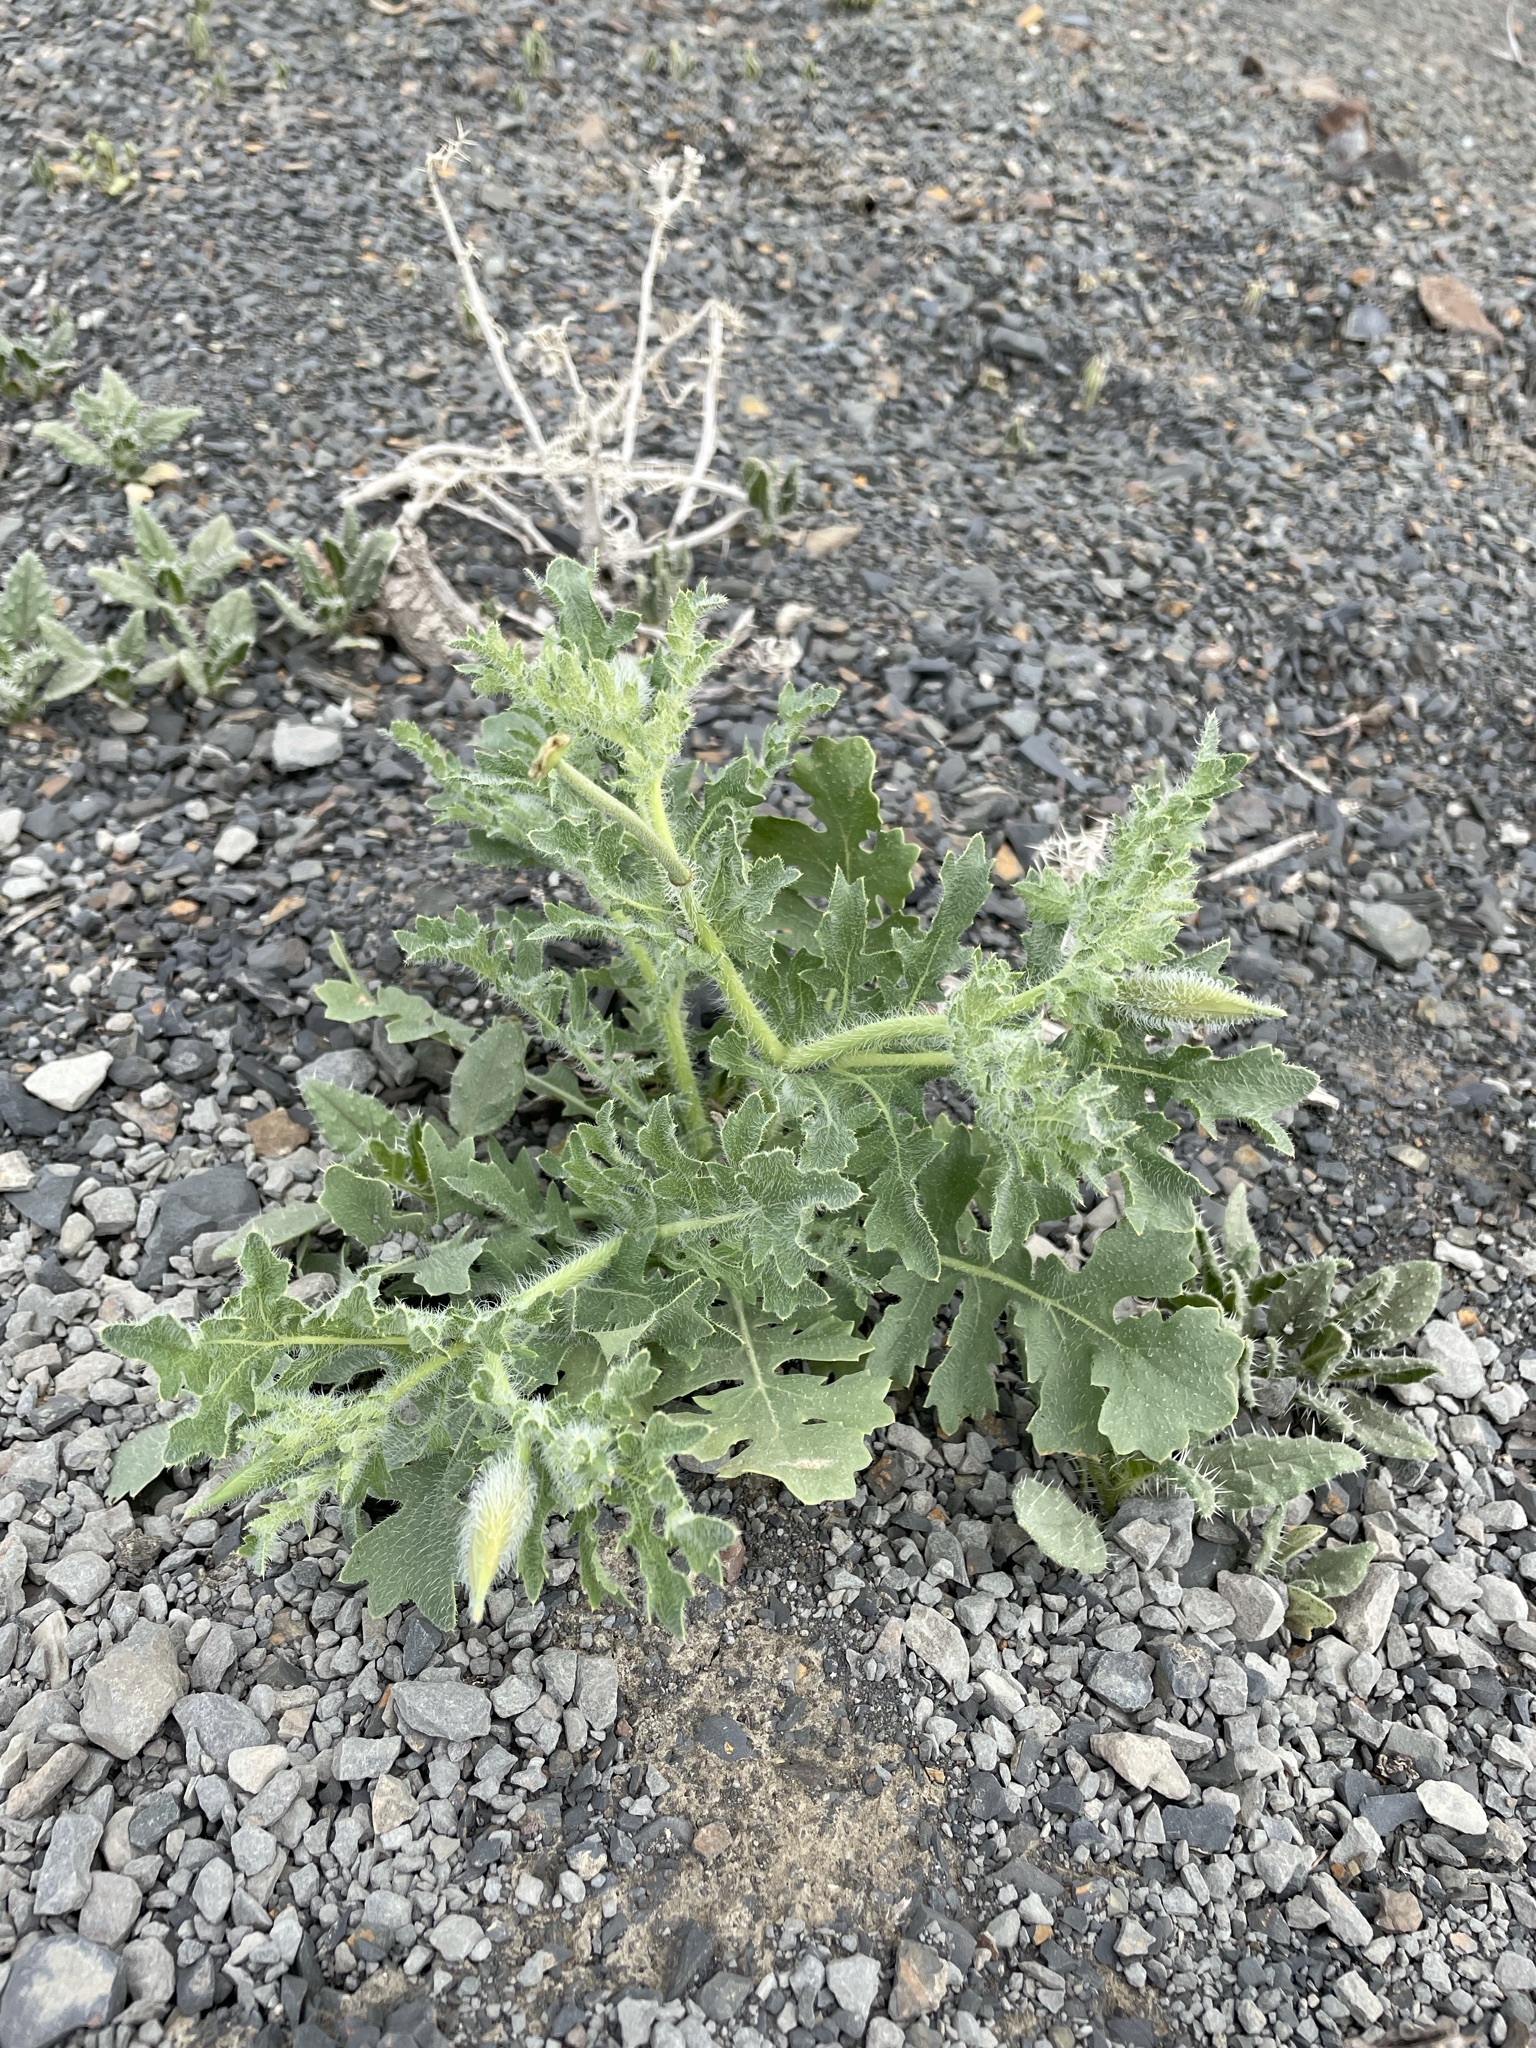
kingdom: Plantae
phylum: Tracheophyta
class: Magnoliopsida
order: Ranunculales
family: Papaveraceae
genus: Glaucium
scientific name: Glaucium corniculatum
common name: Red horned-poppy
